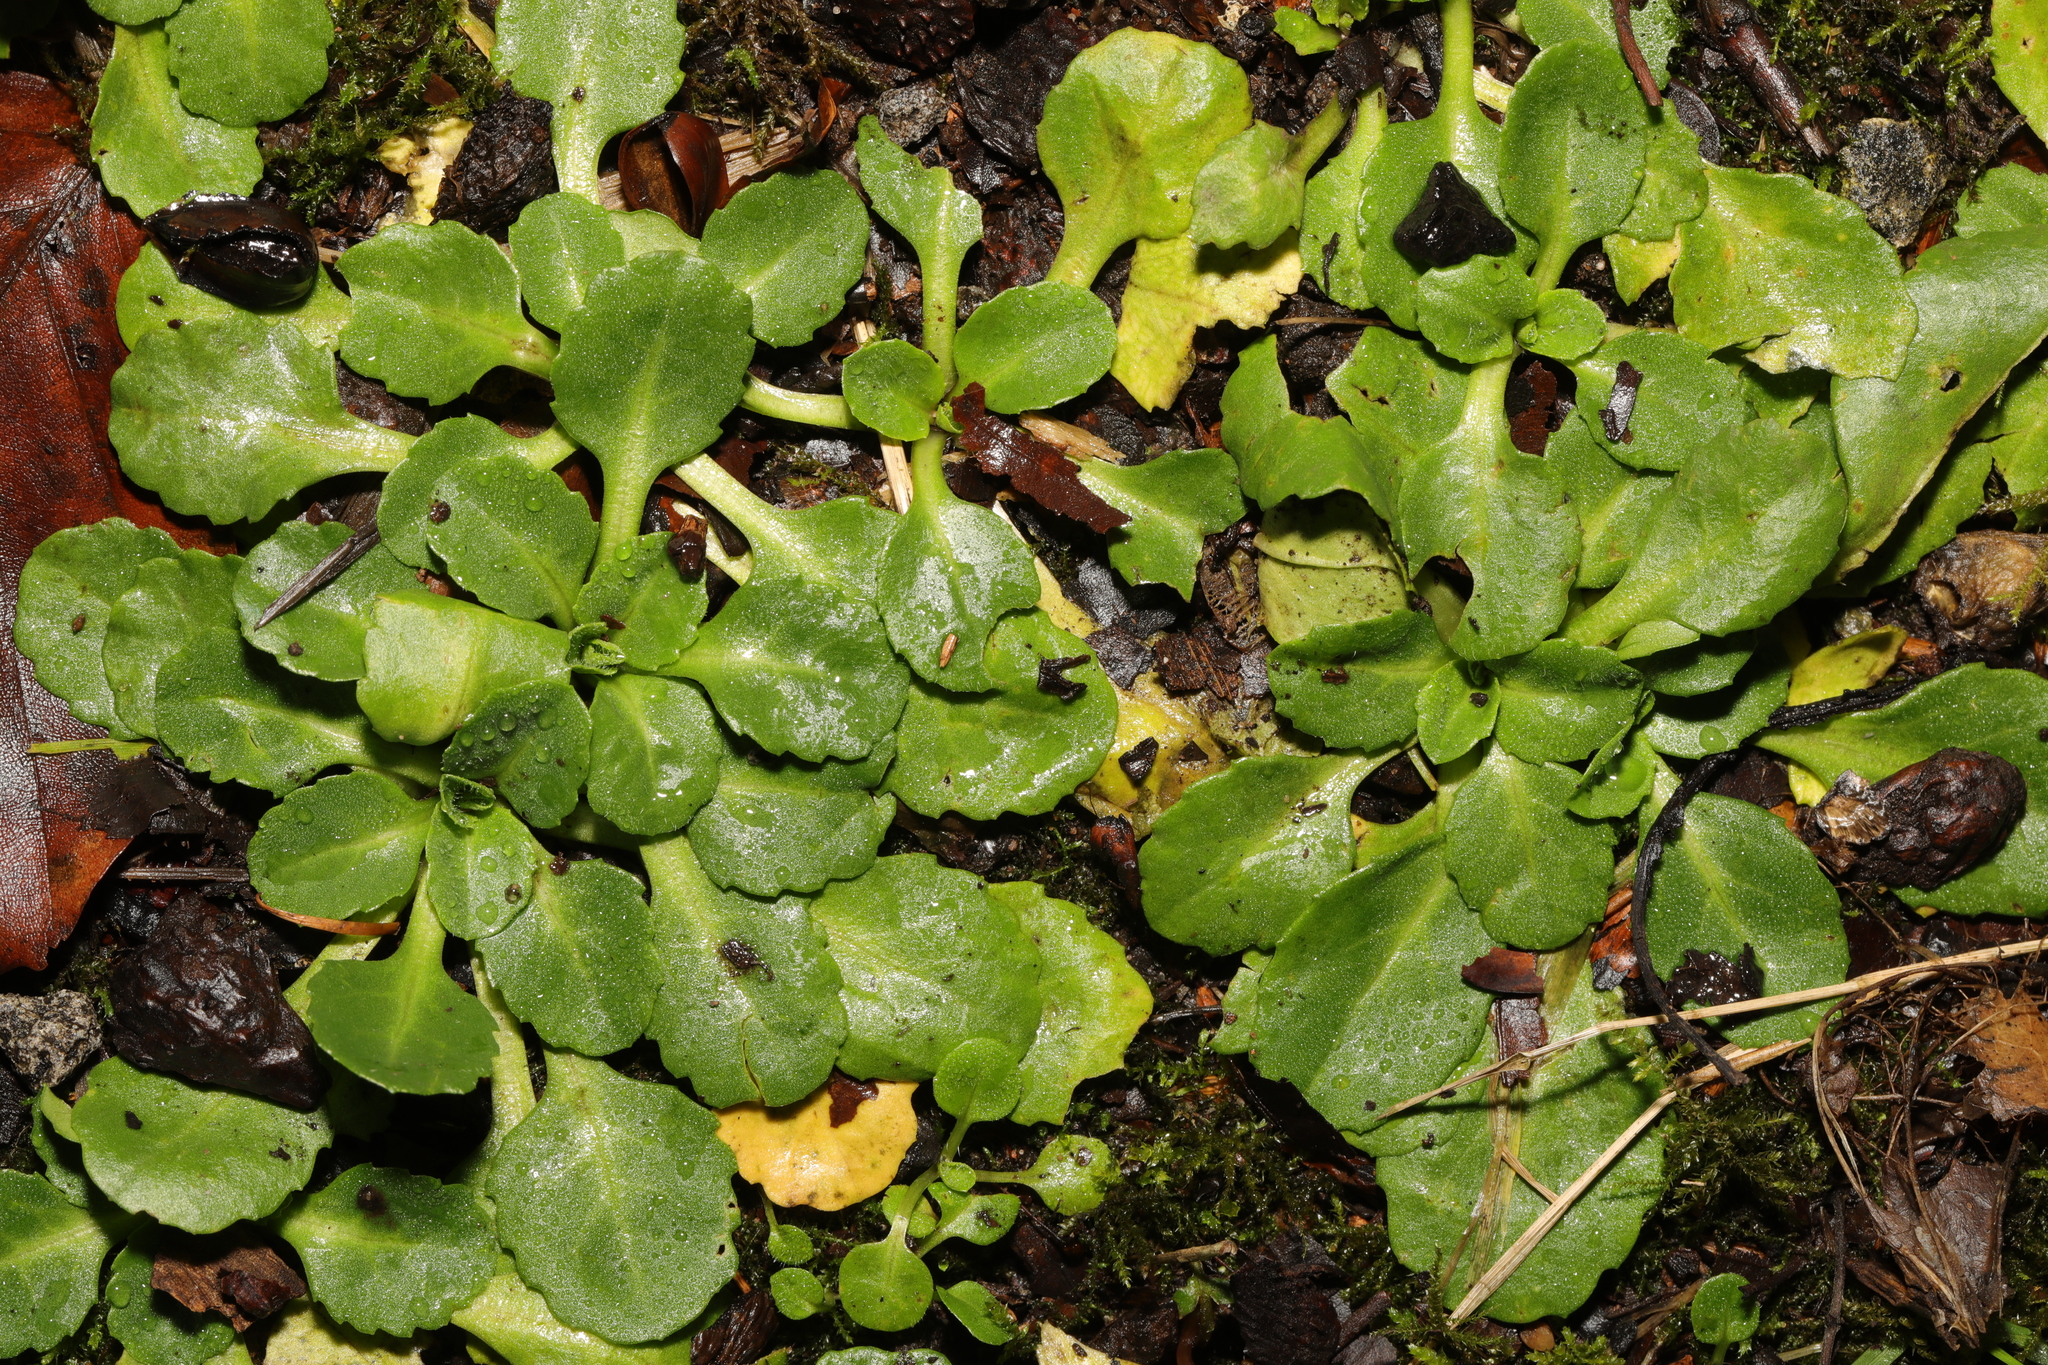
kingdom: Plantae
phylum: Tracheophyta
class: Magnoliopsida
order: Asterales
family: Asteraceae
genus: Bellis
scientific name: Bellis perennis
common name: Lawndaisy
